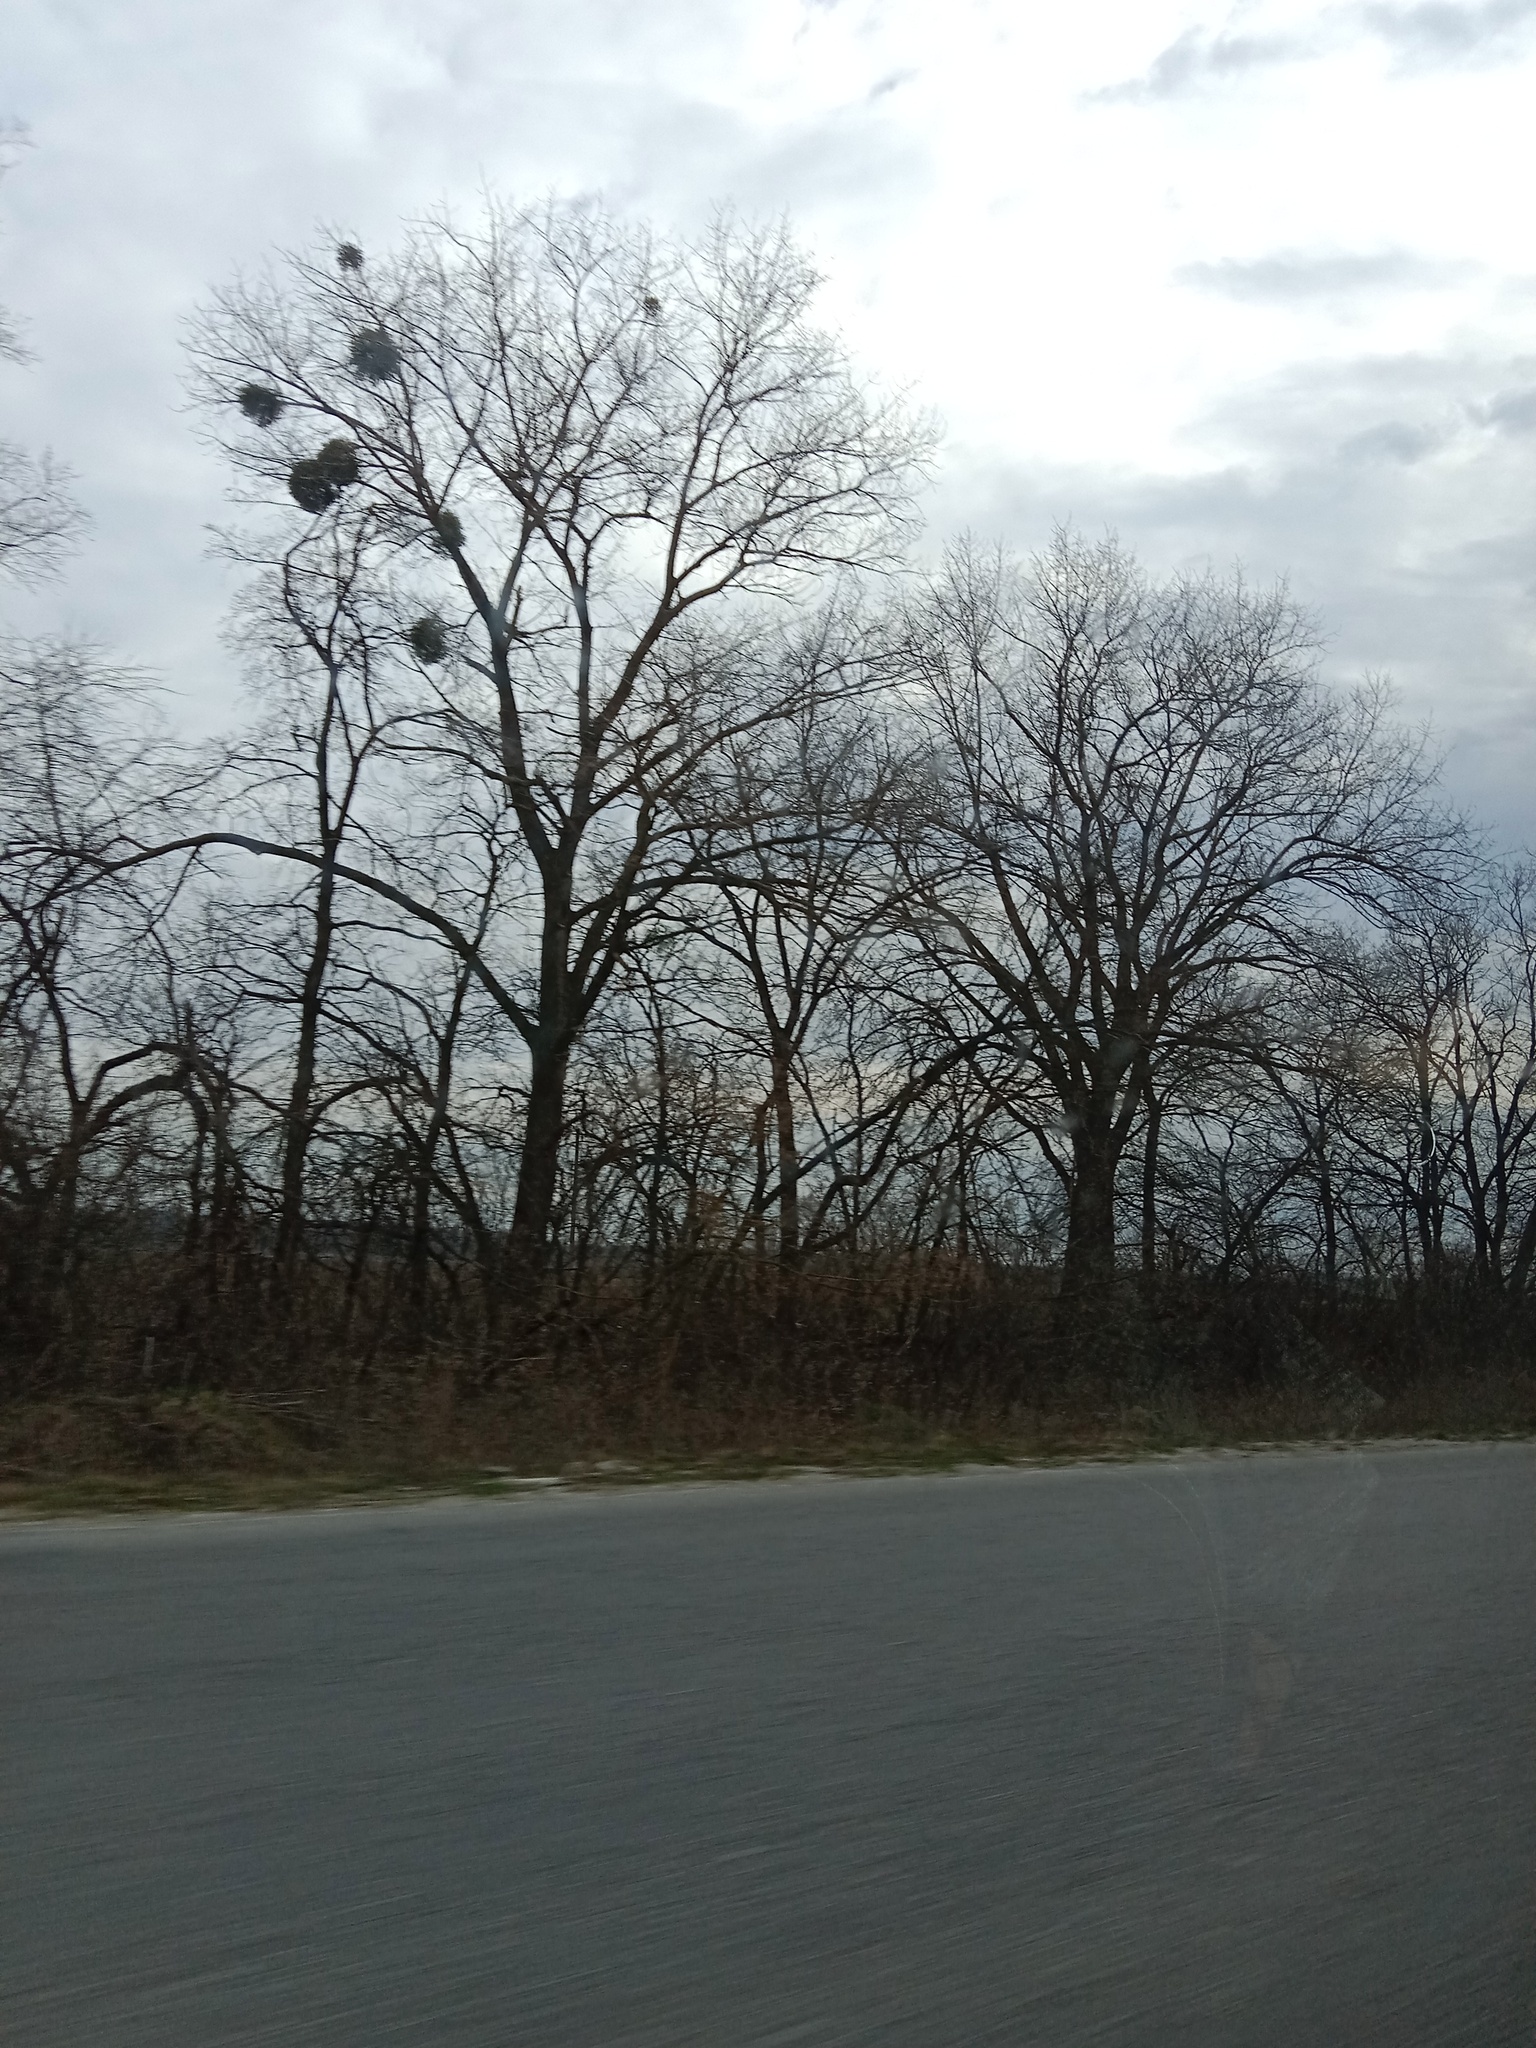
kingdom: Plantae
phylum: Tracheophyta
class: Magnoliopsida
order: Santalales
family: Viscaceae
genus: Viscum
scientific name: Viscum album
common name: Mistletoe
